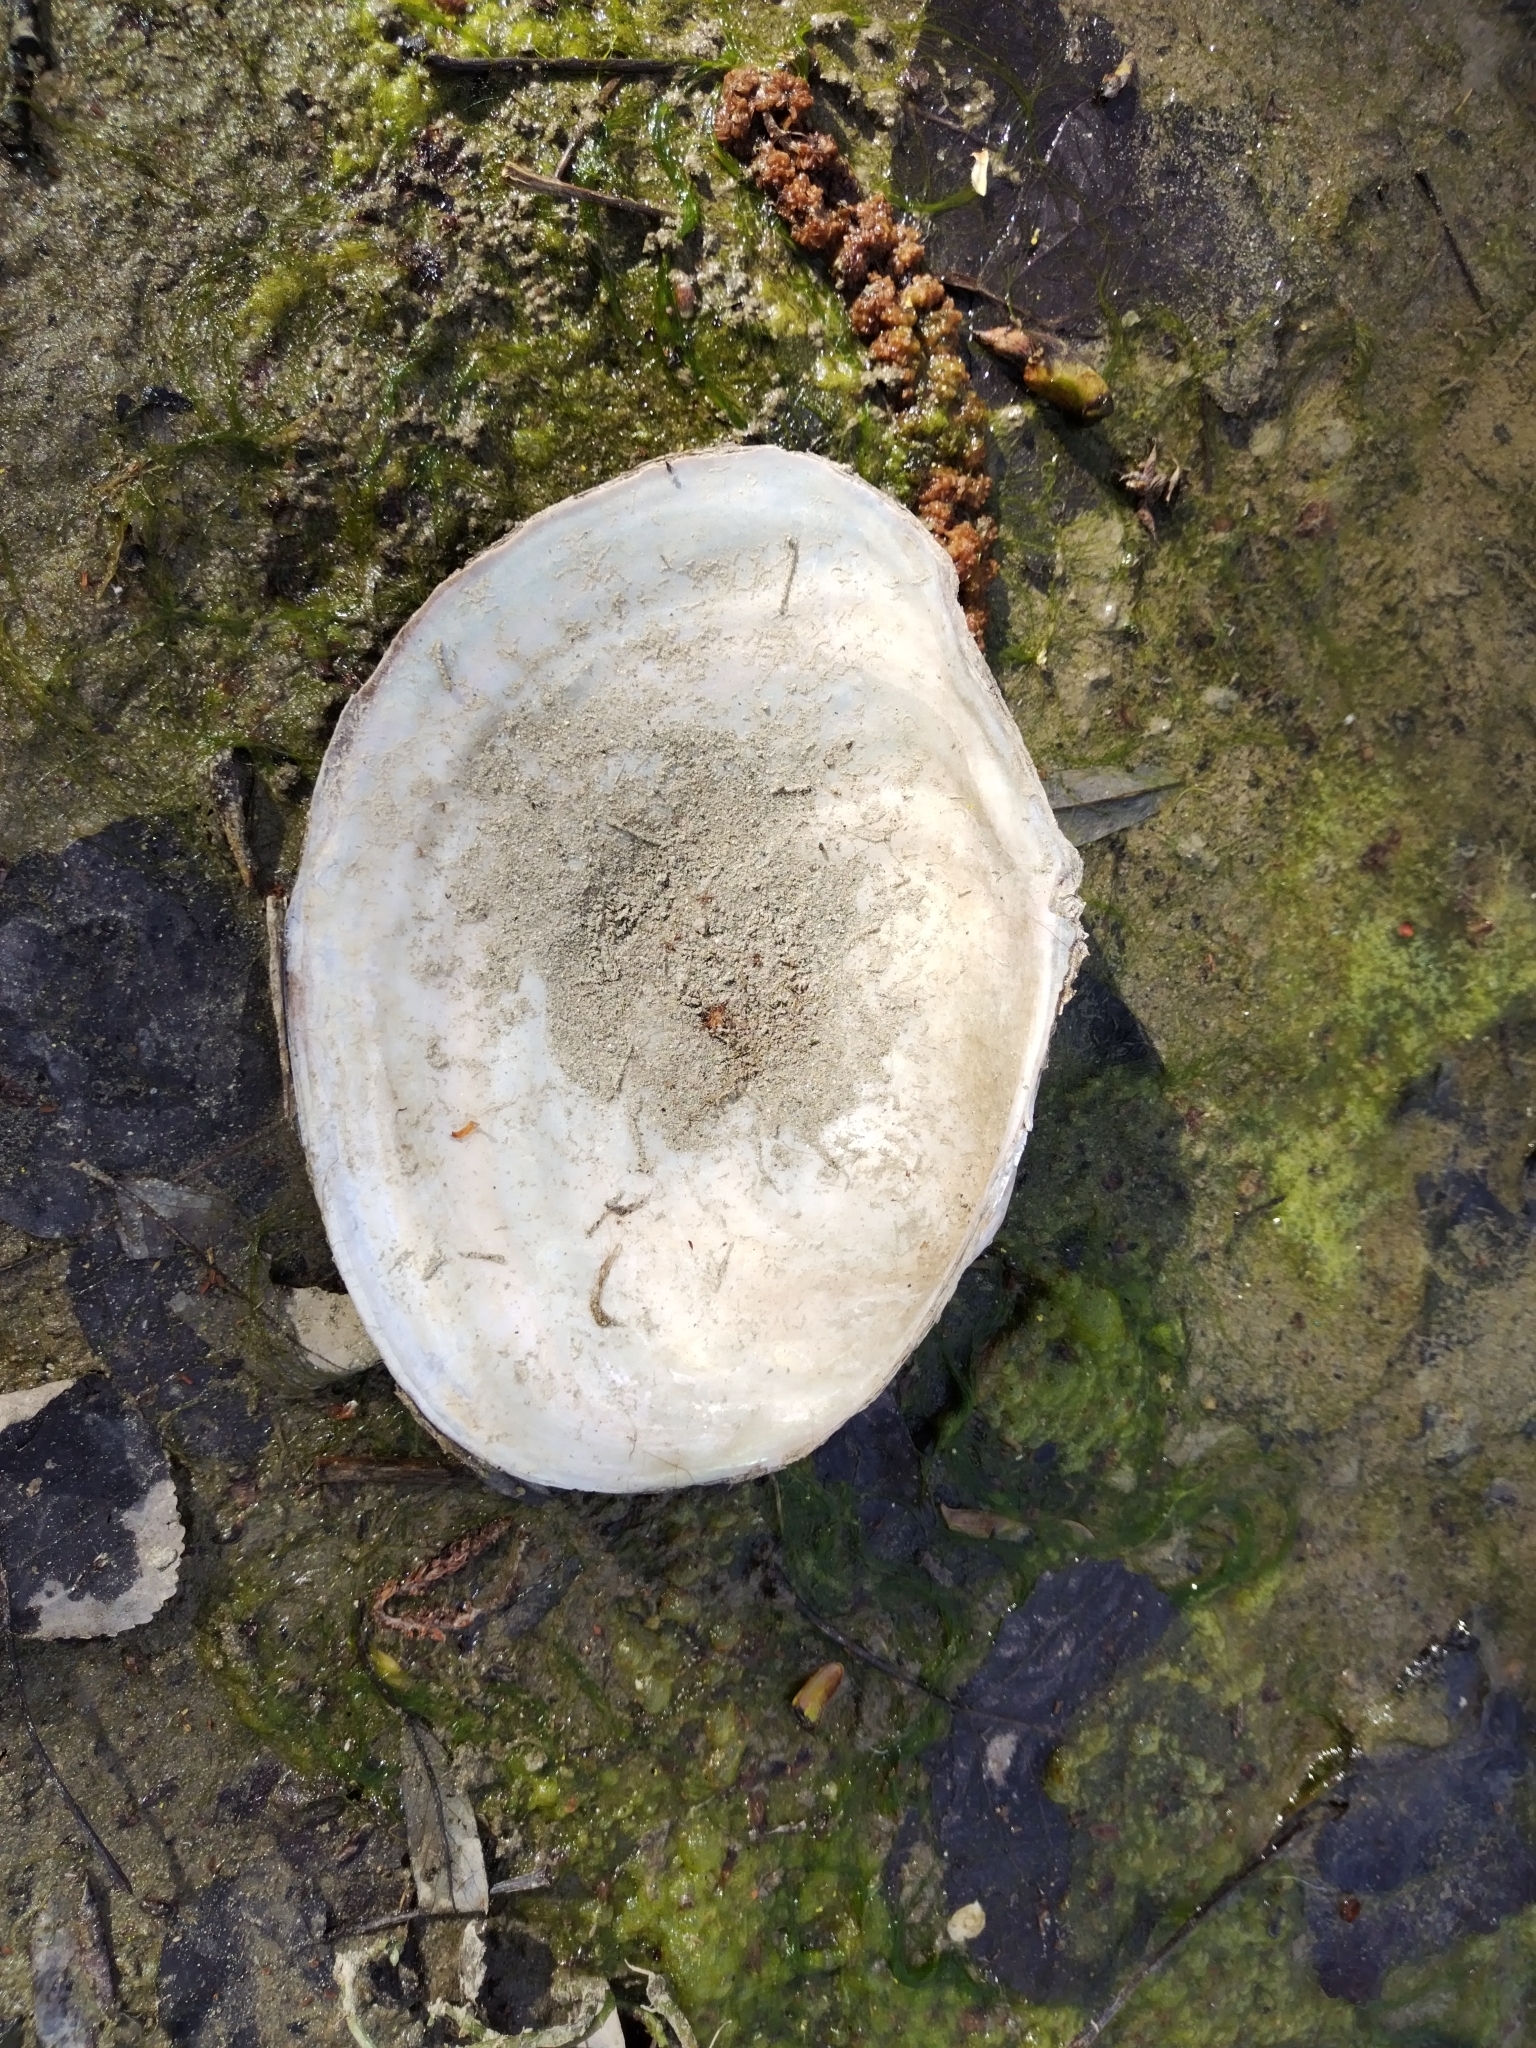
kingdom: Animalia
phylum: Mollusca
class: Bivalvia
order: Unionida
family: Unionidae
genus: Sinanodonta
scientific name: Sinanodonta woodiana
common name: Chinese pond mussel
